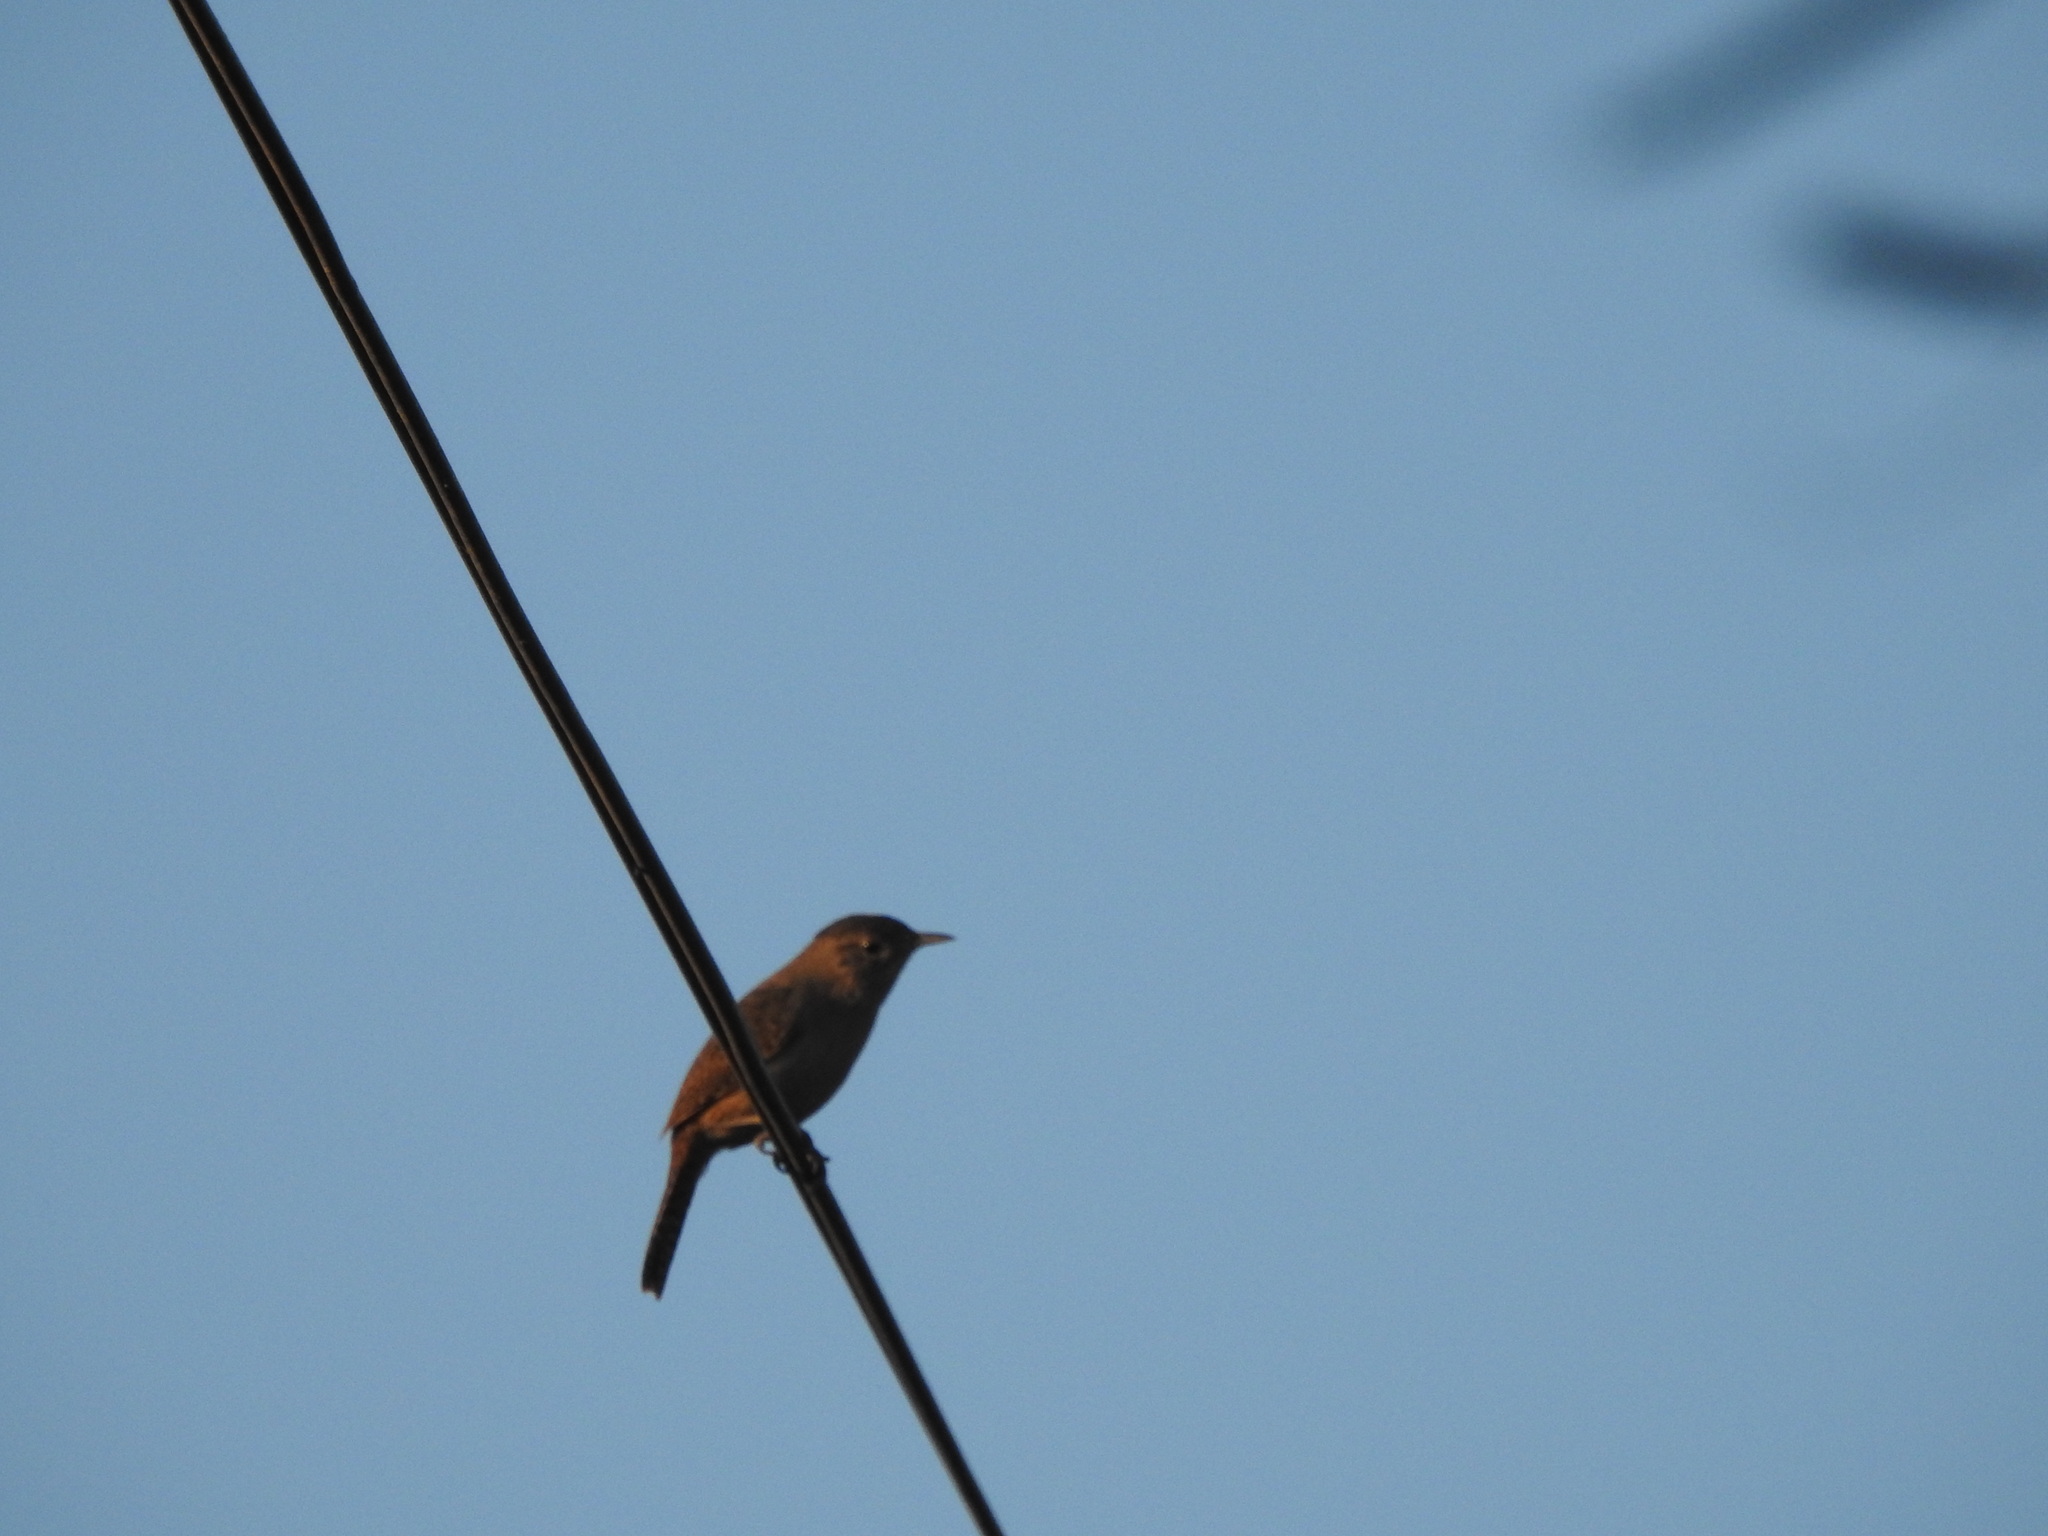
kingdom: Animalia
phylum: Chordata
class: Aves
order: Passeriformes
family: Troglodytidae
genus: Troglodytes
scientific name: Troglodytes aedon
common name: House wren
